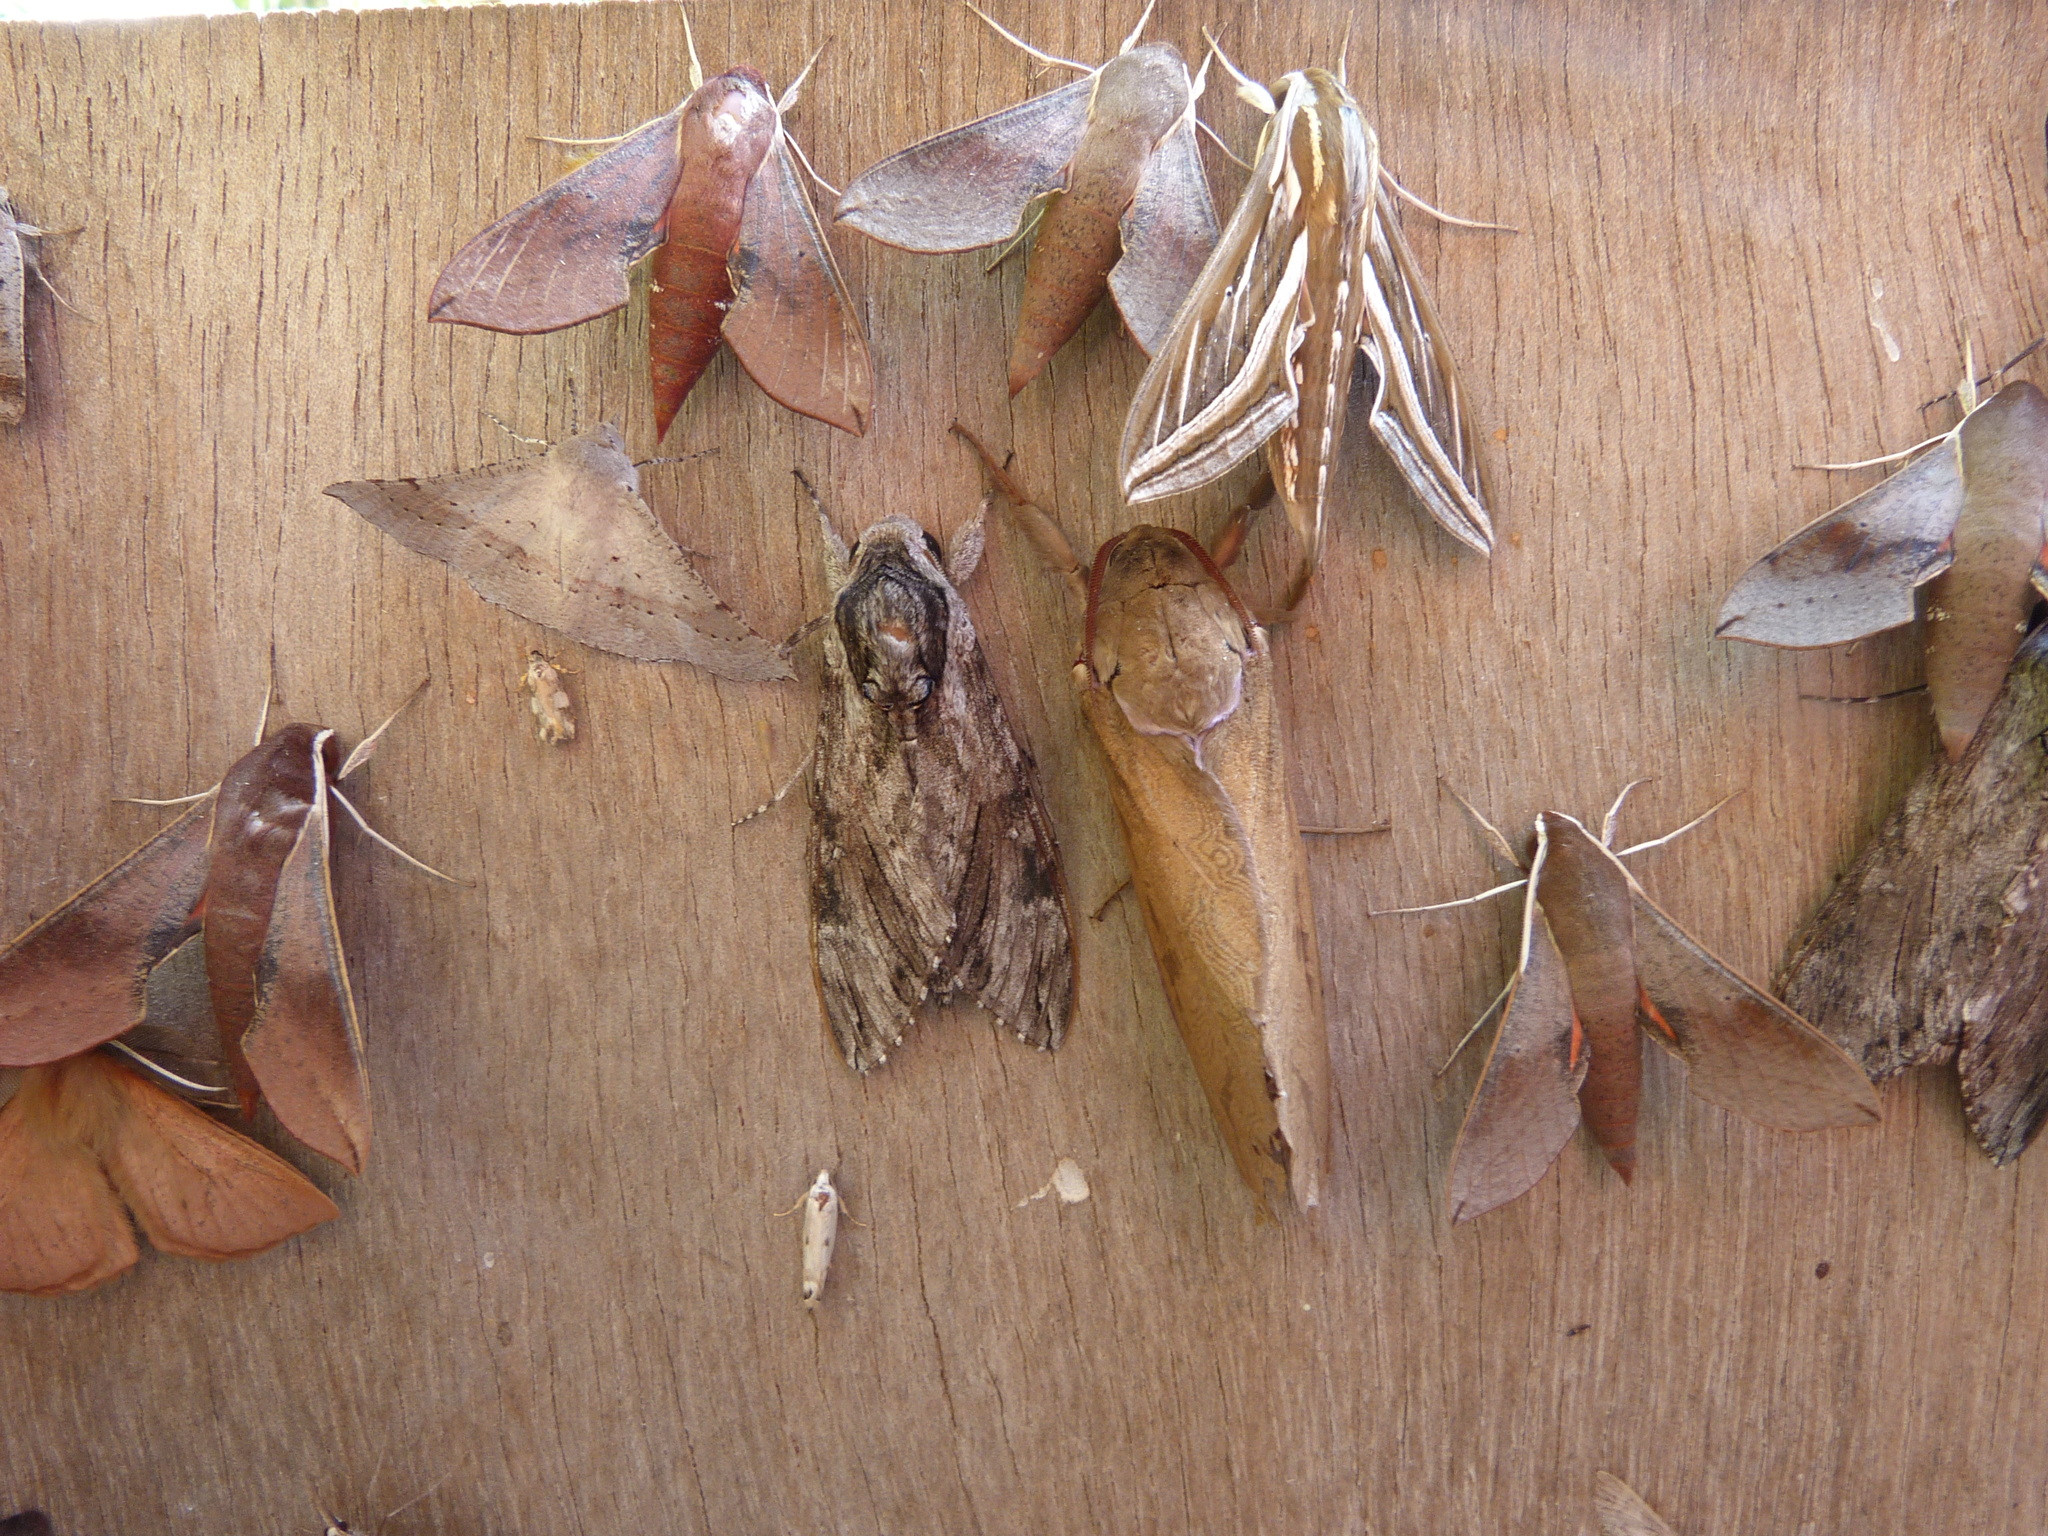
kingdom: Animalia
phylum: Arthropoda
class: Insecta
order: Lepidoptera
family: Sphingidae
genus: Hippotion
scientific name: Hippotion scrofa
